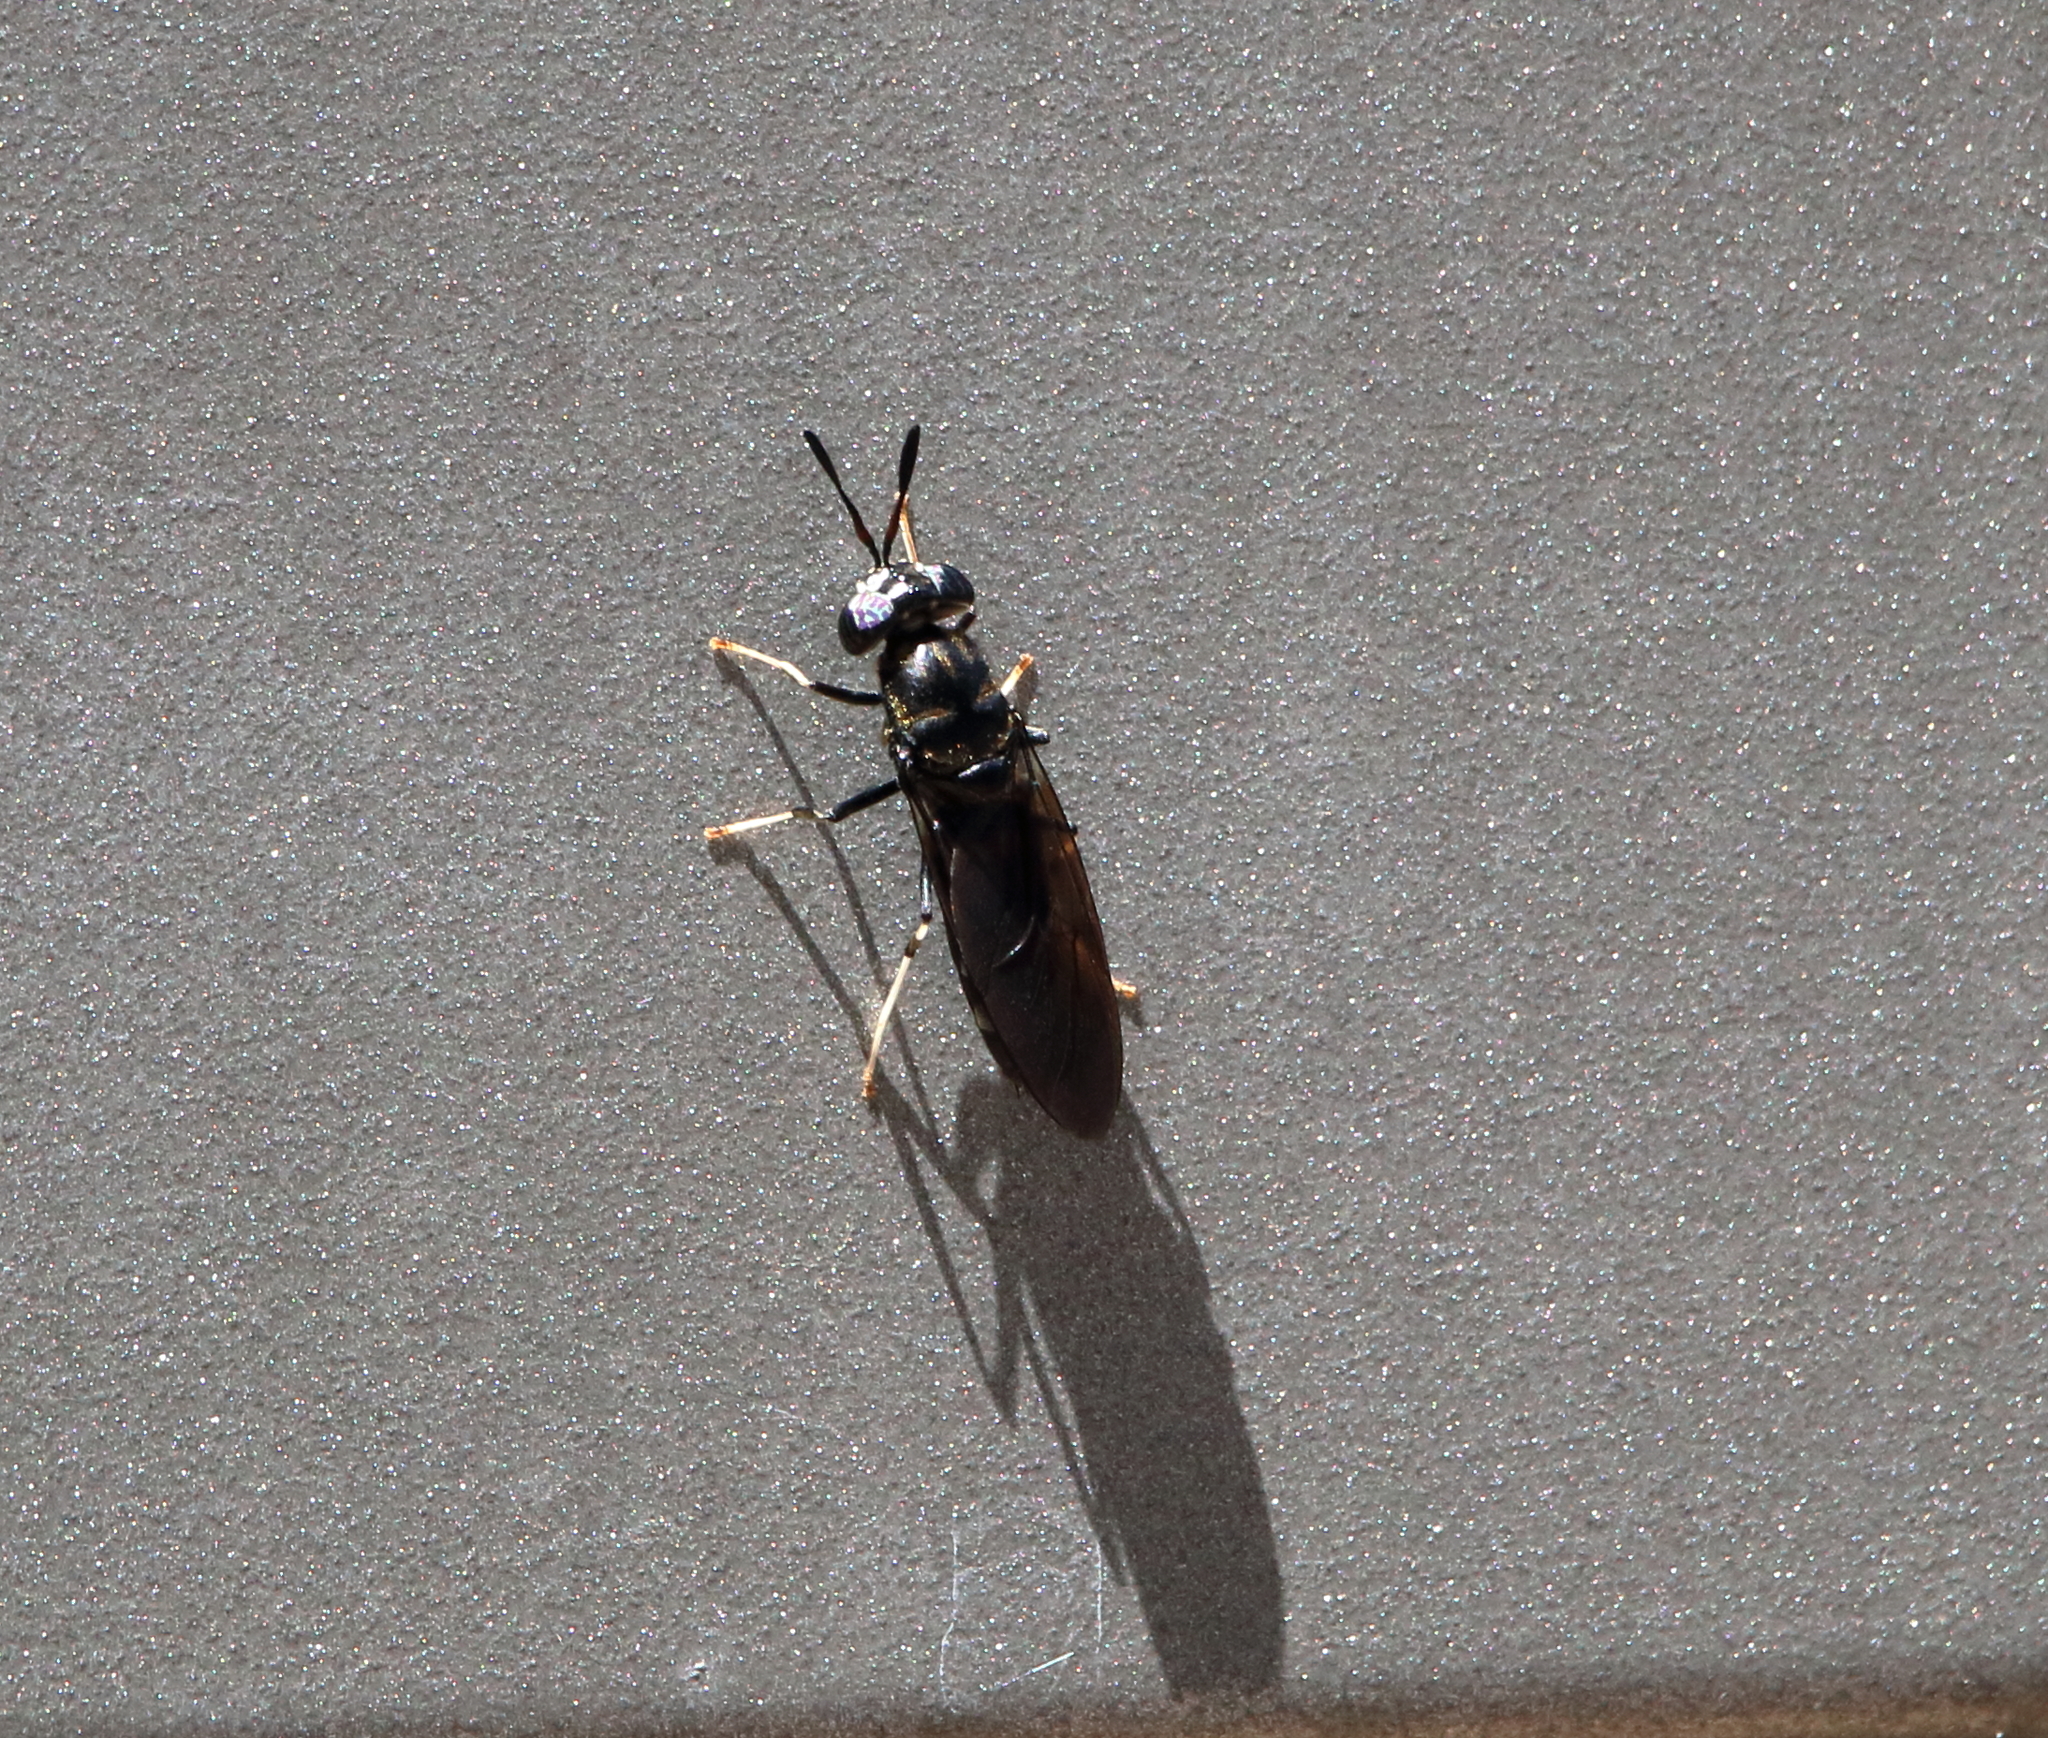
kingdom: Animalia
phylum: Arthropoda
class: Insecta
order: Diptera
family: Stratiomyidae
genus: Hermetia
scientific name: Hermetia illucens
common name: Black soldier fly
